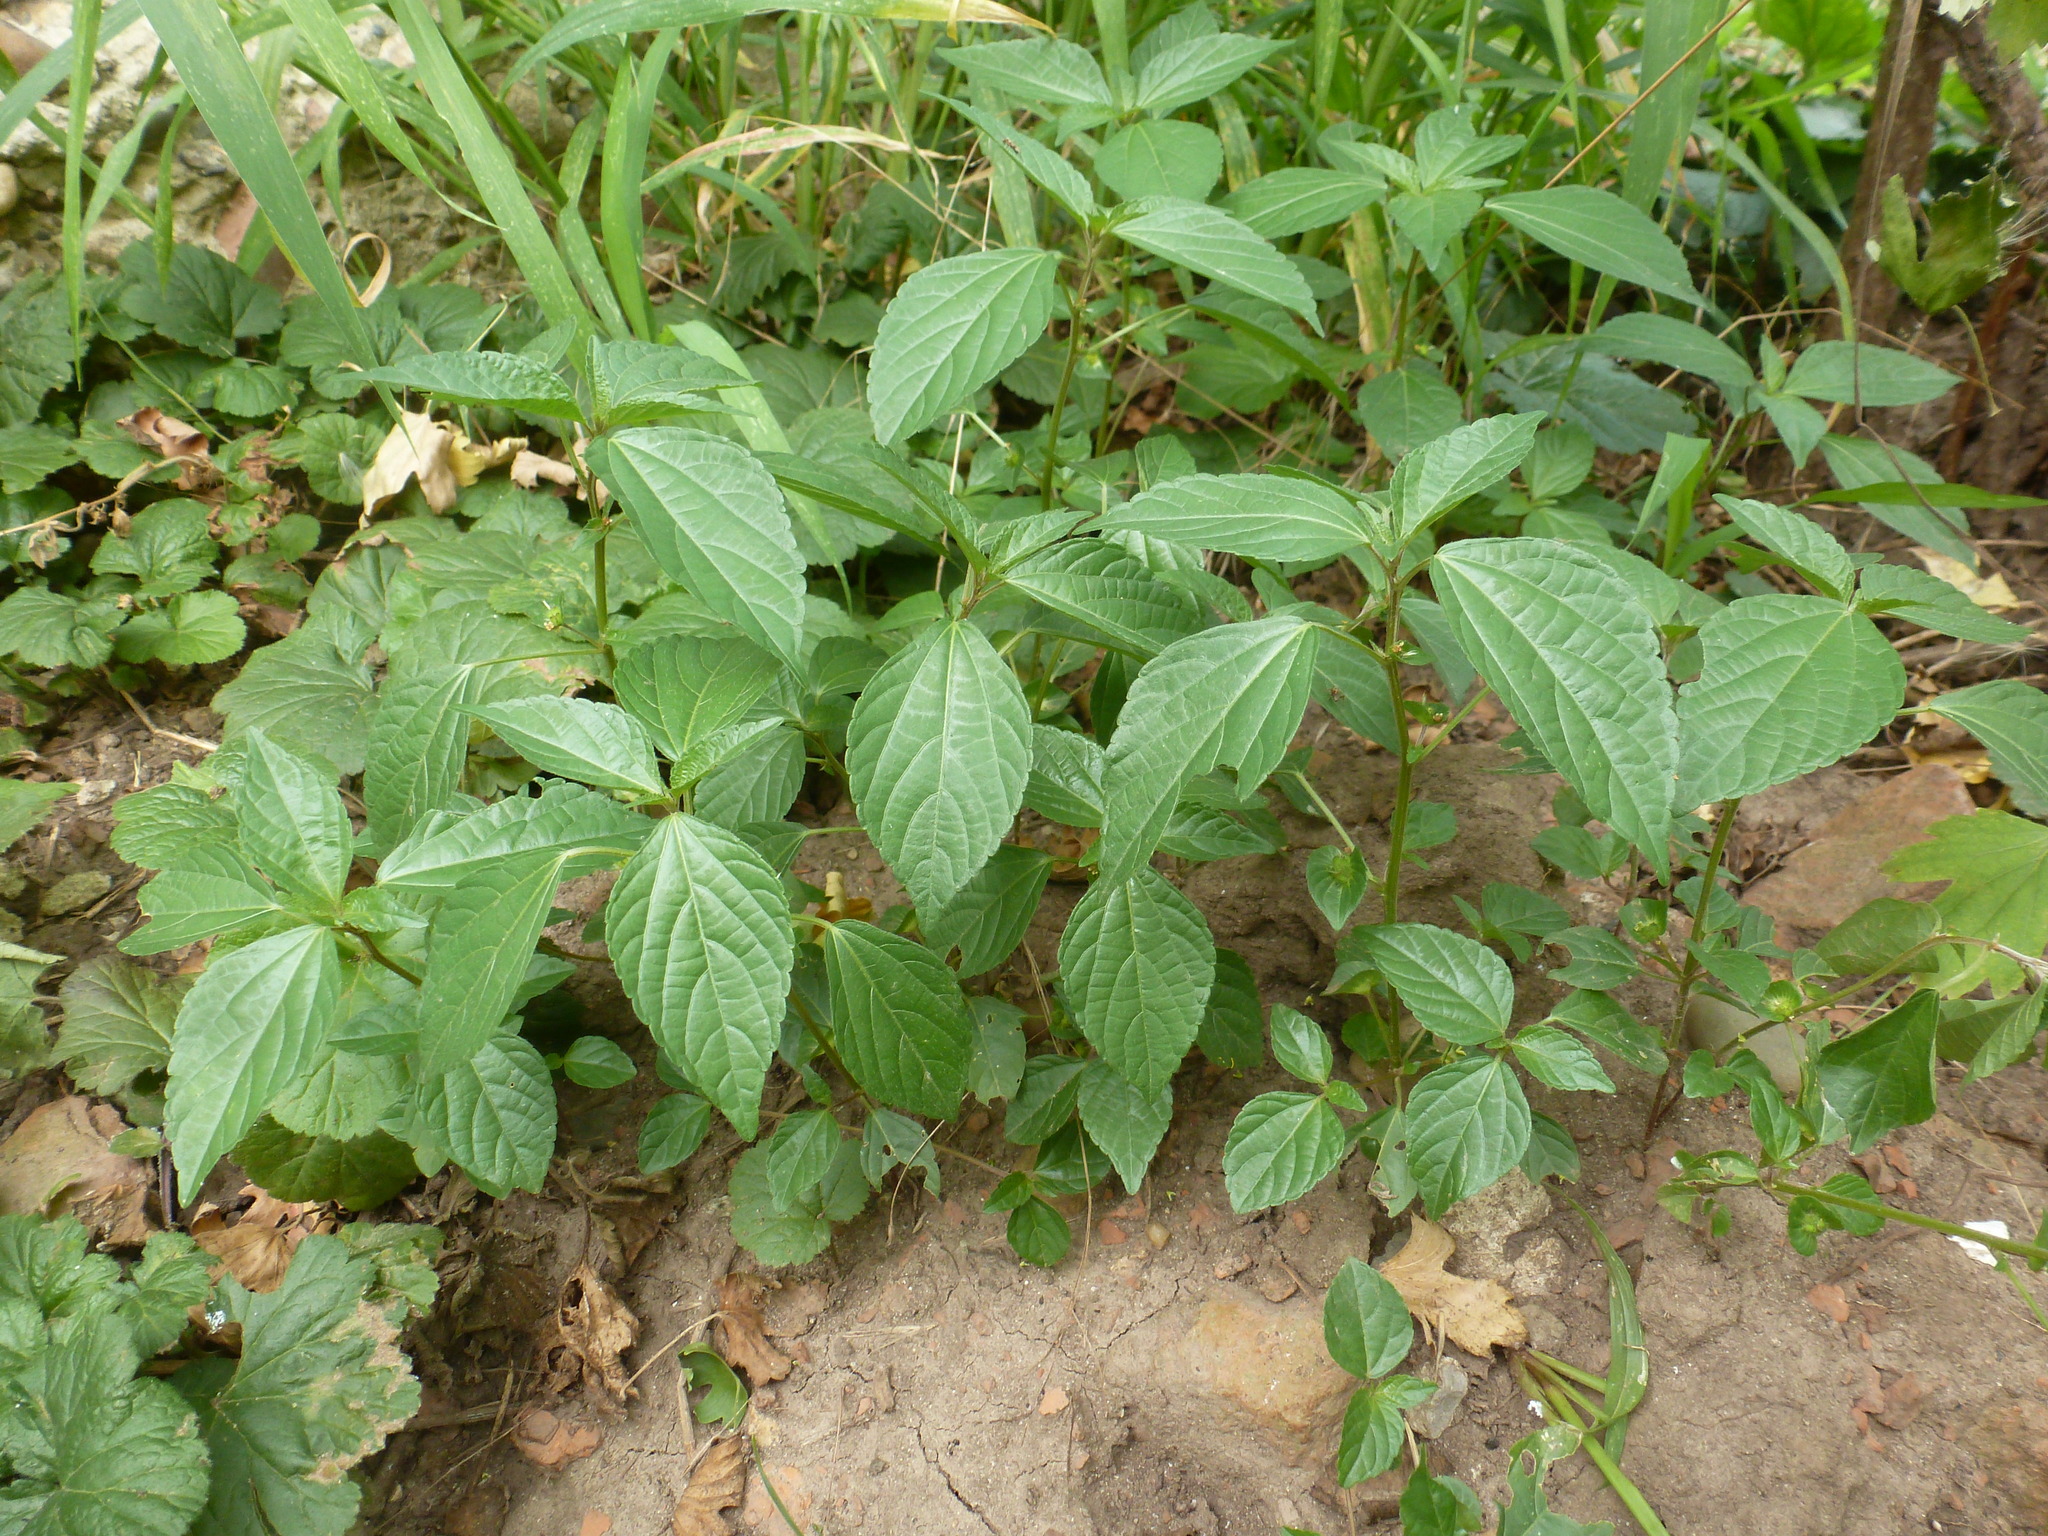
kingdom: Plantae
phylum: Tracheophyta
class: Magnoliopsida
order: Malpighiales
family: Euphorbiaceae
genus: Acalypha
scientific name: Acalypha australis
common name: Asian copperleaf
